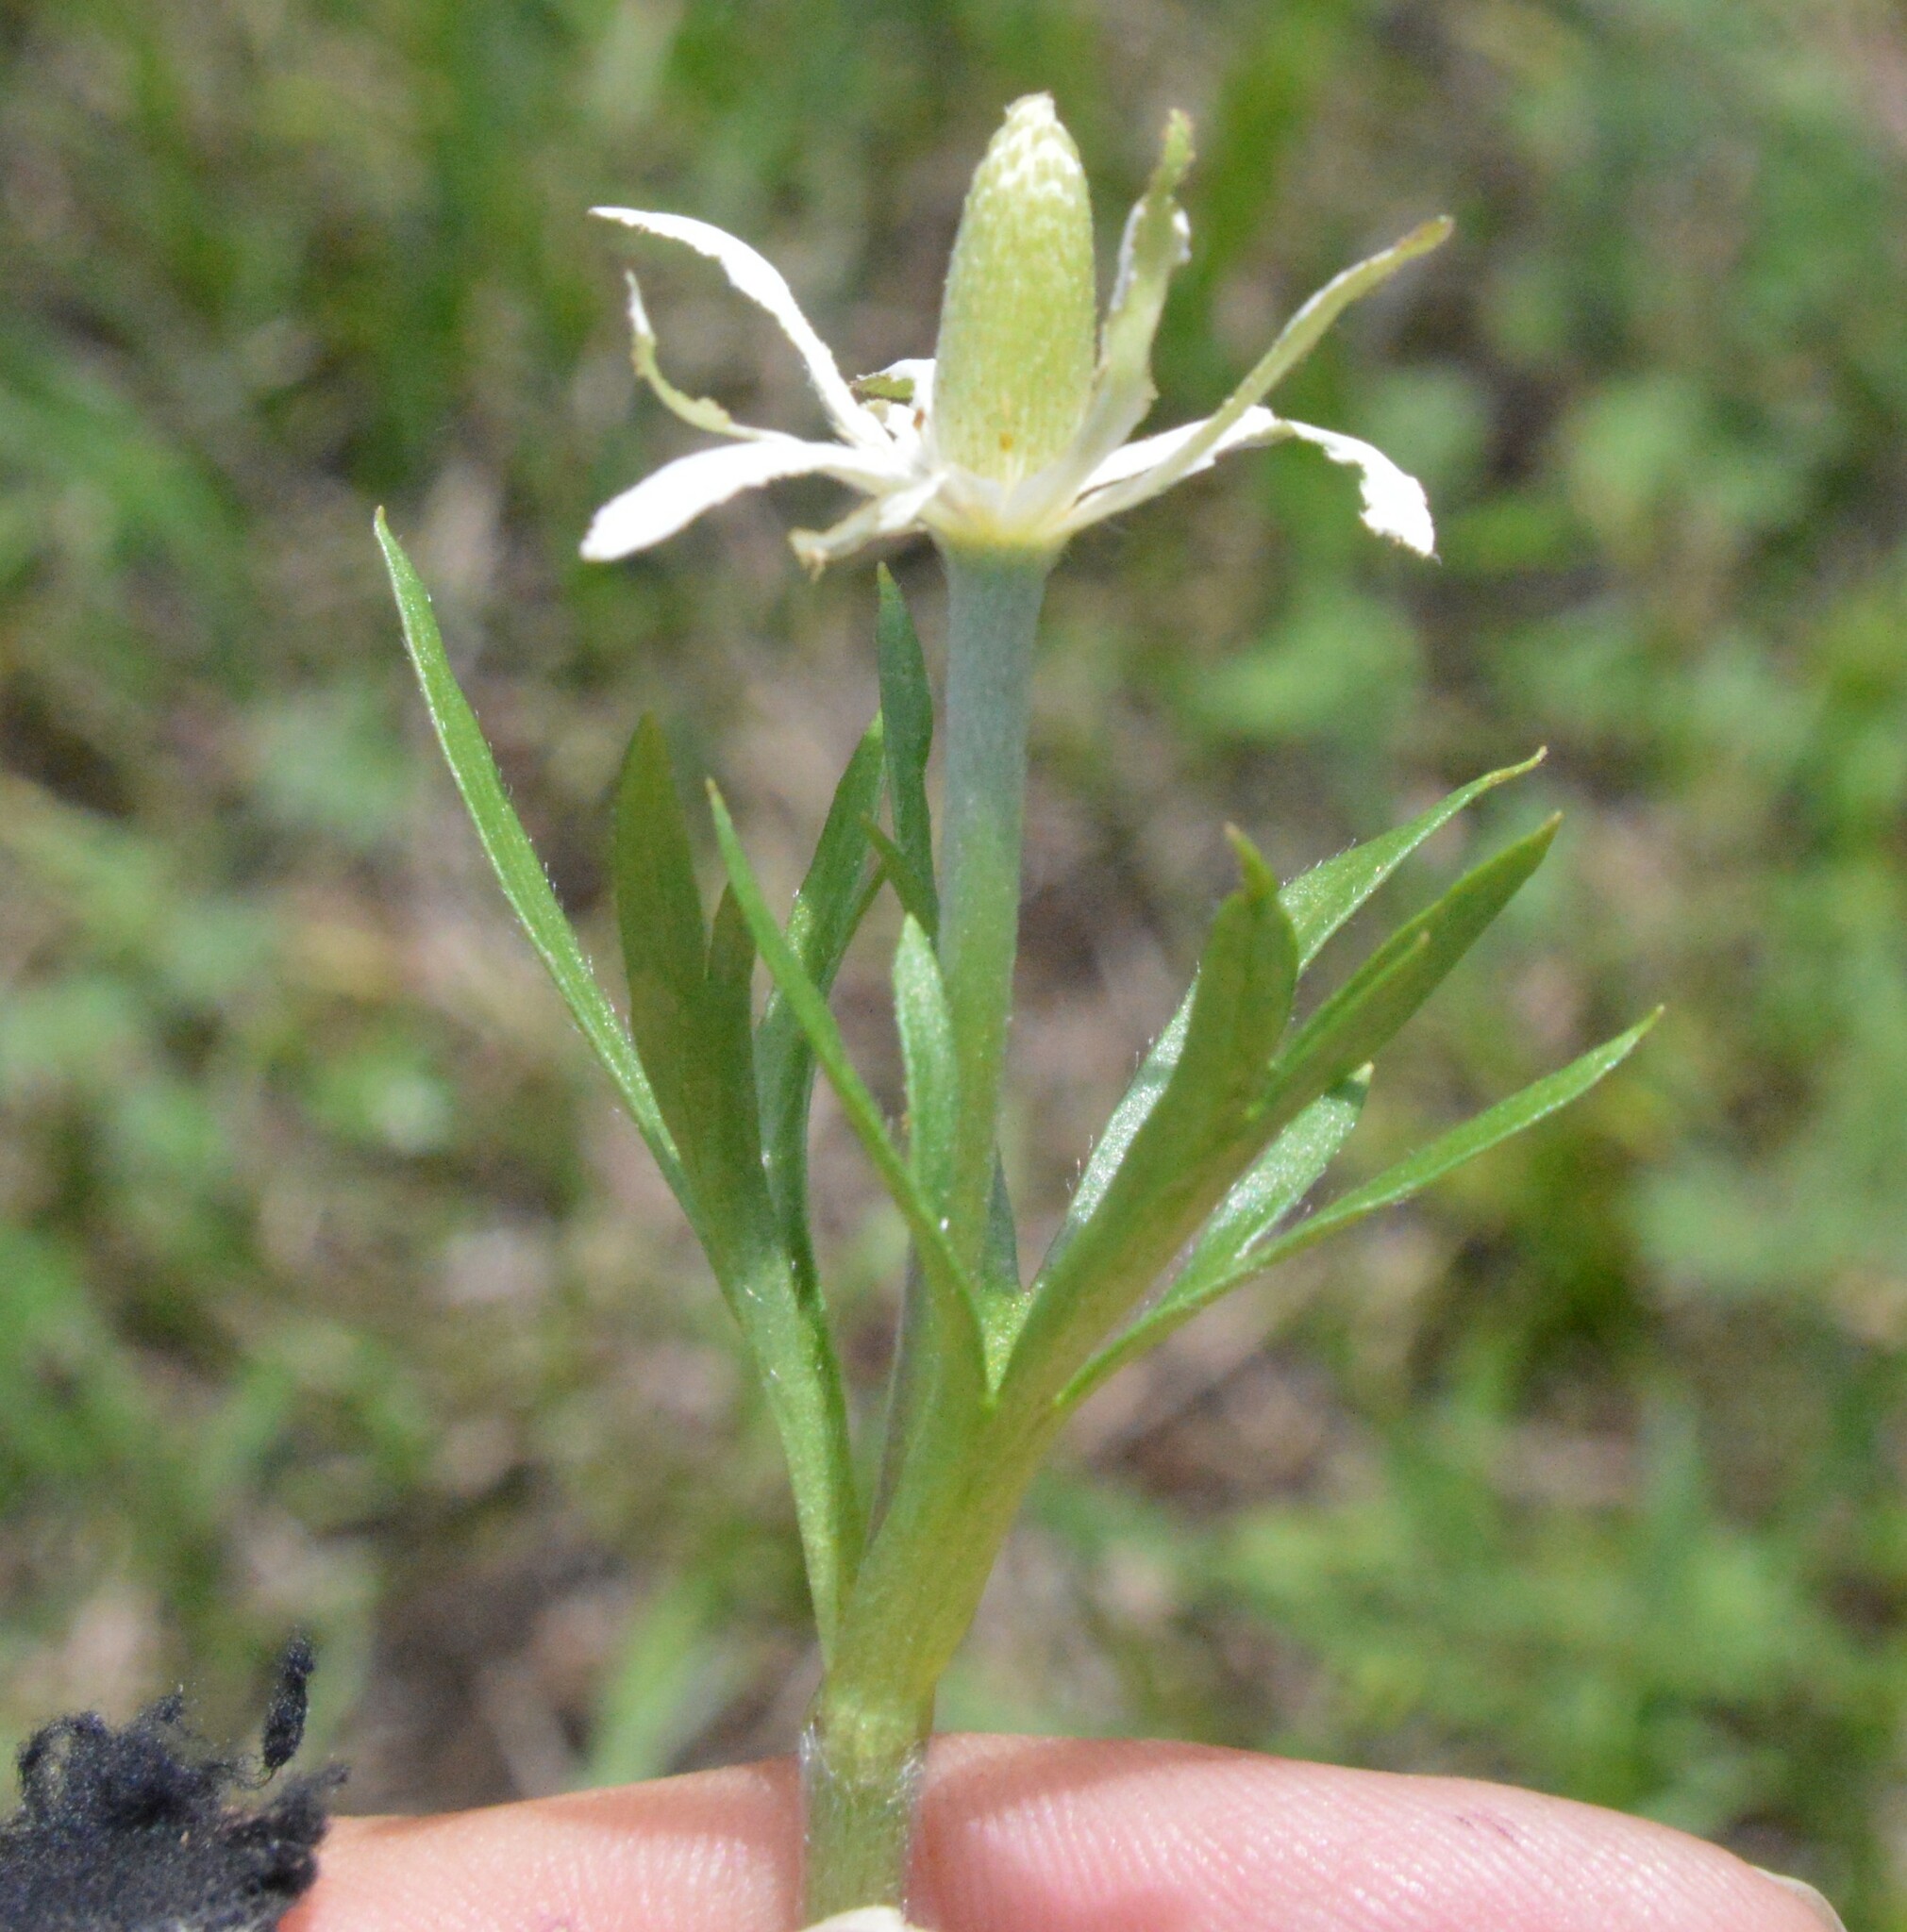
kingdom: Plantae
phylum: Tracheophyta
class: Magnoliopsida
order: Ranunculales
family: Ranunculaceae
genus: Anemone
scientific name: Anemone berlandieri
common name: Ten-petal anemone
